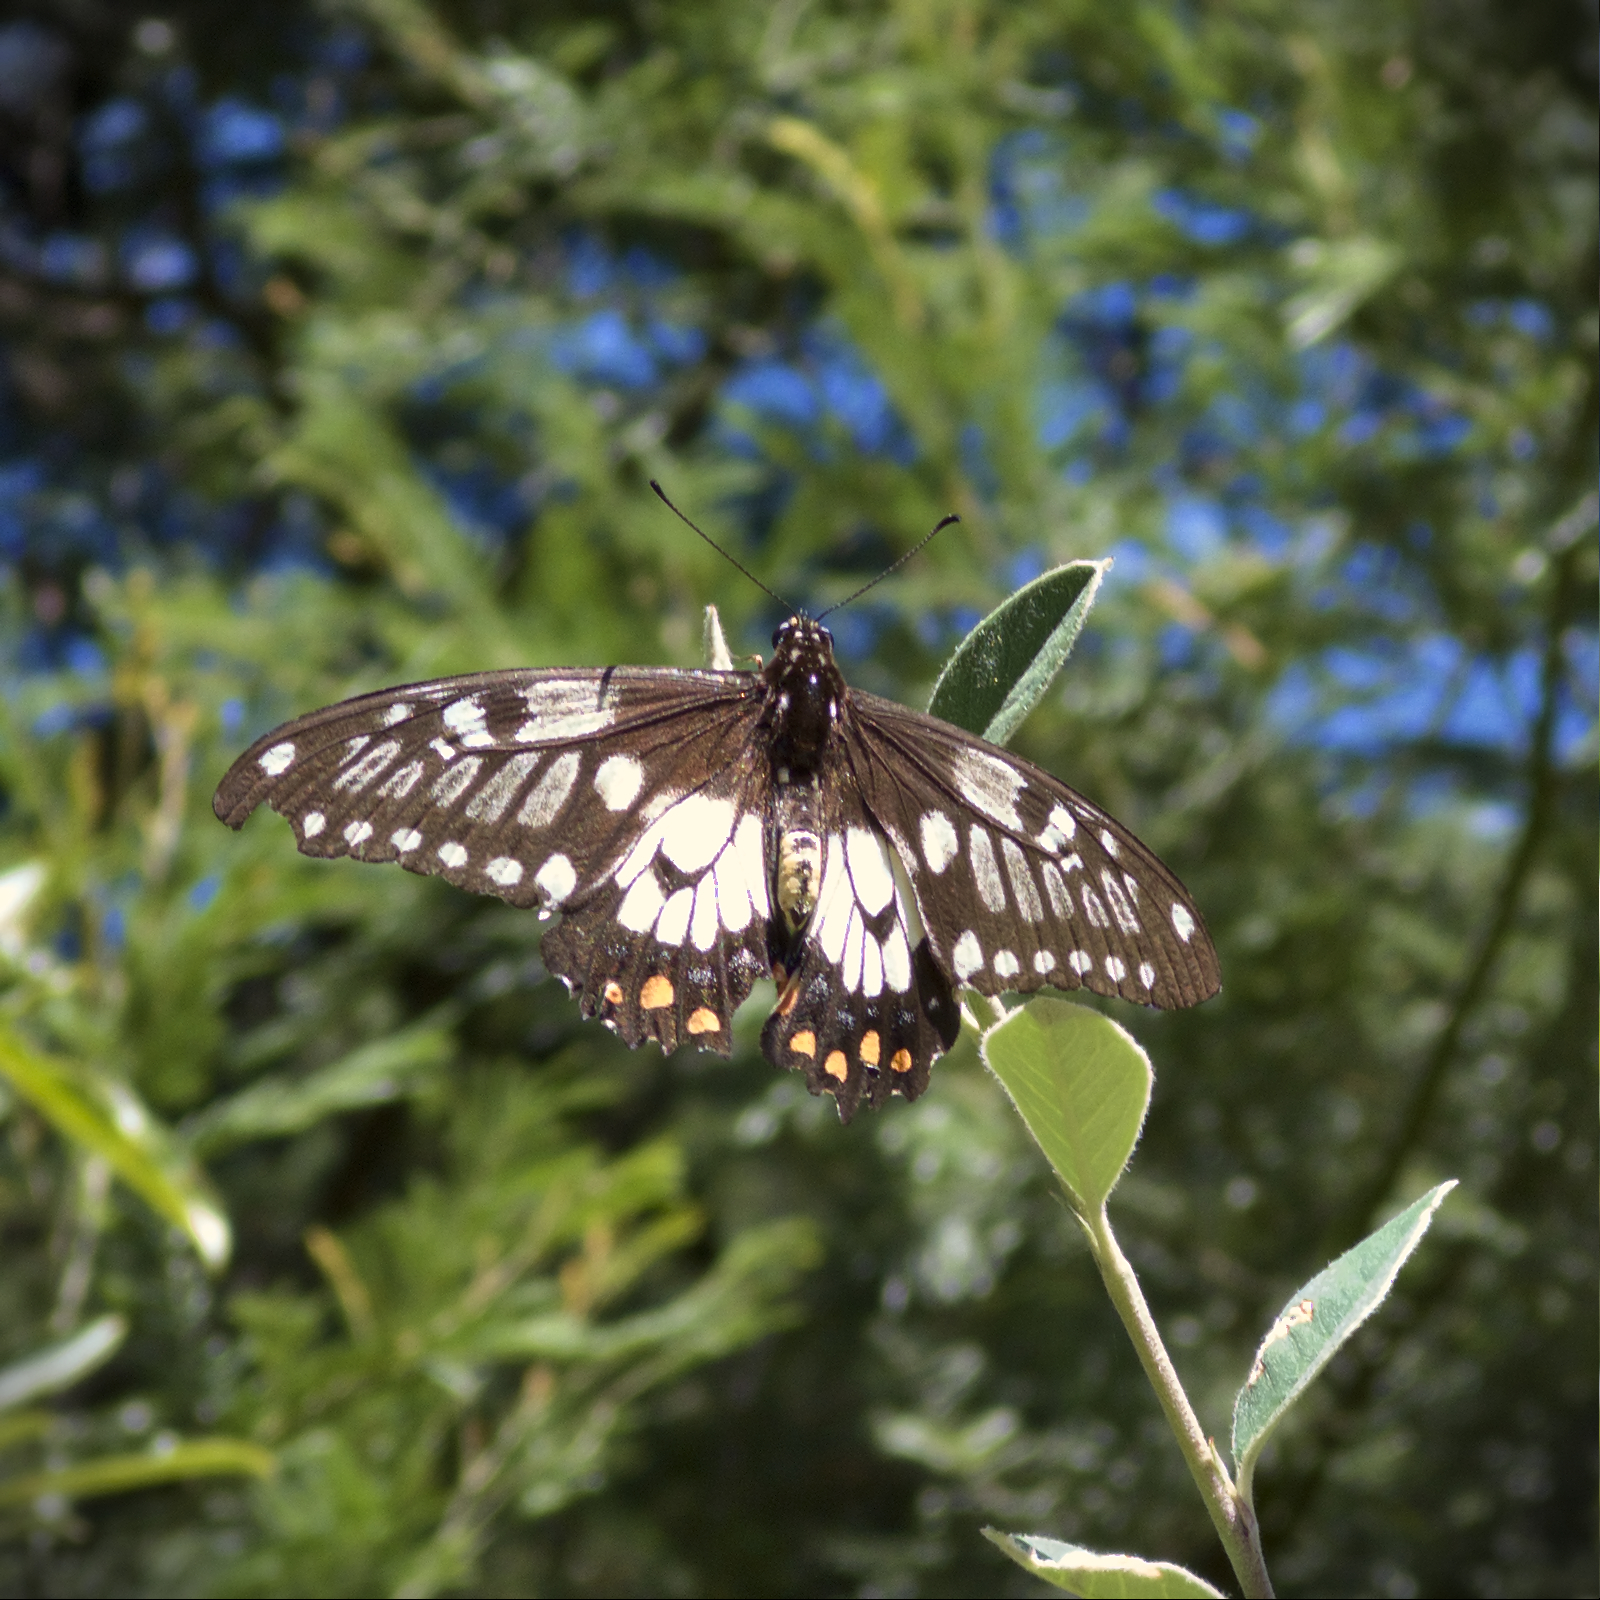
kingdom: Animalia
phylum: Arthropoda
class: Insecta
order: Lepidoptera
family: Papilionidae
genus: Papilio
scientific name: Papilio anactus
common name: Dingy swallowtail
